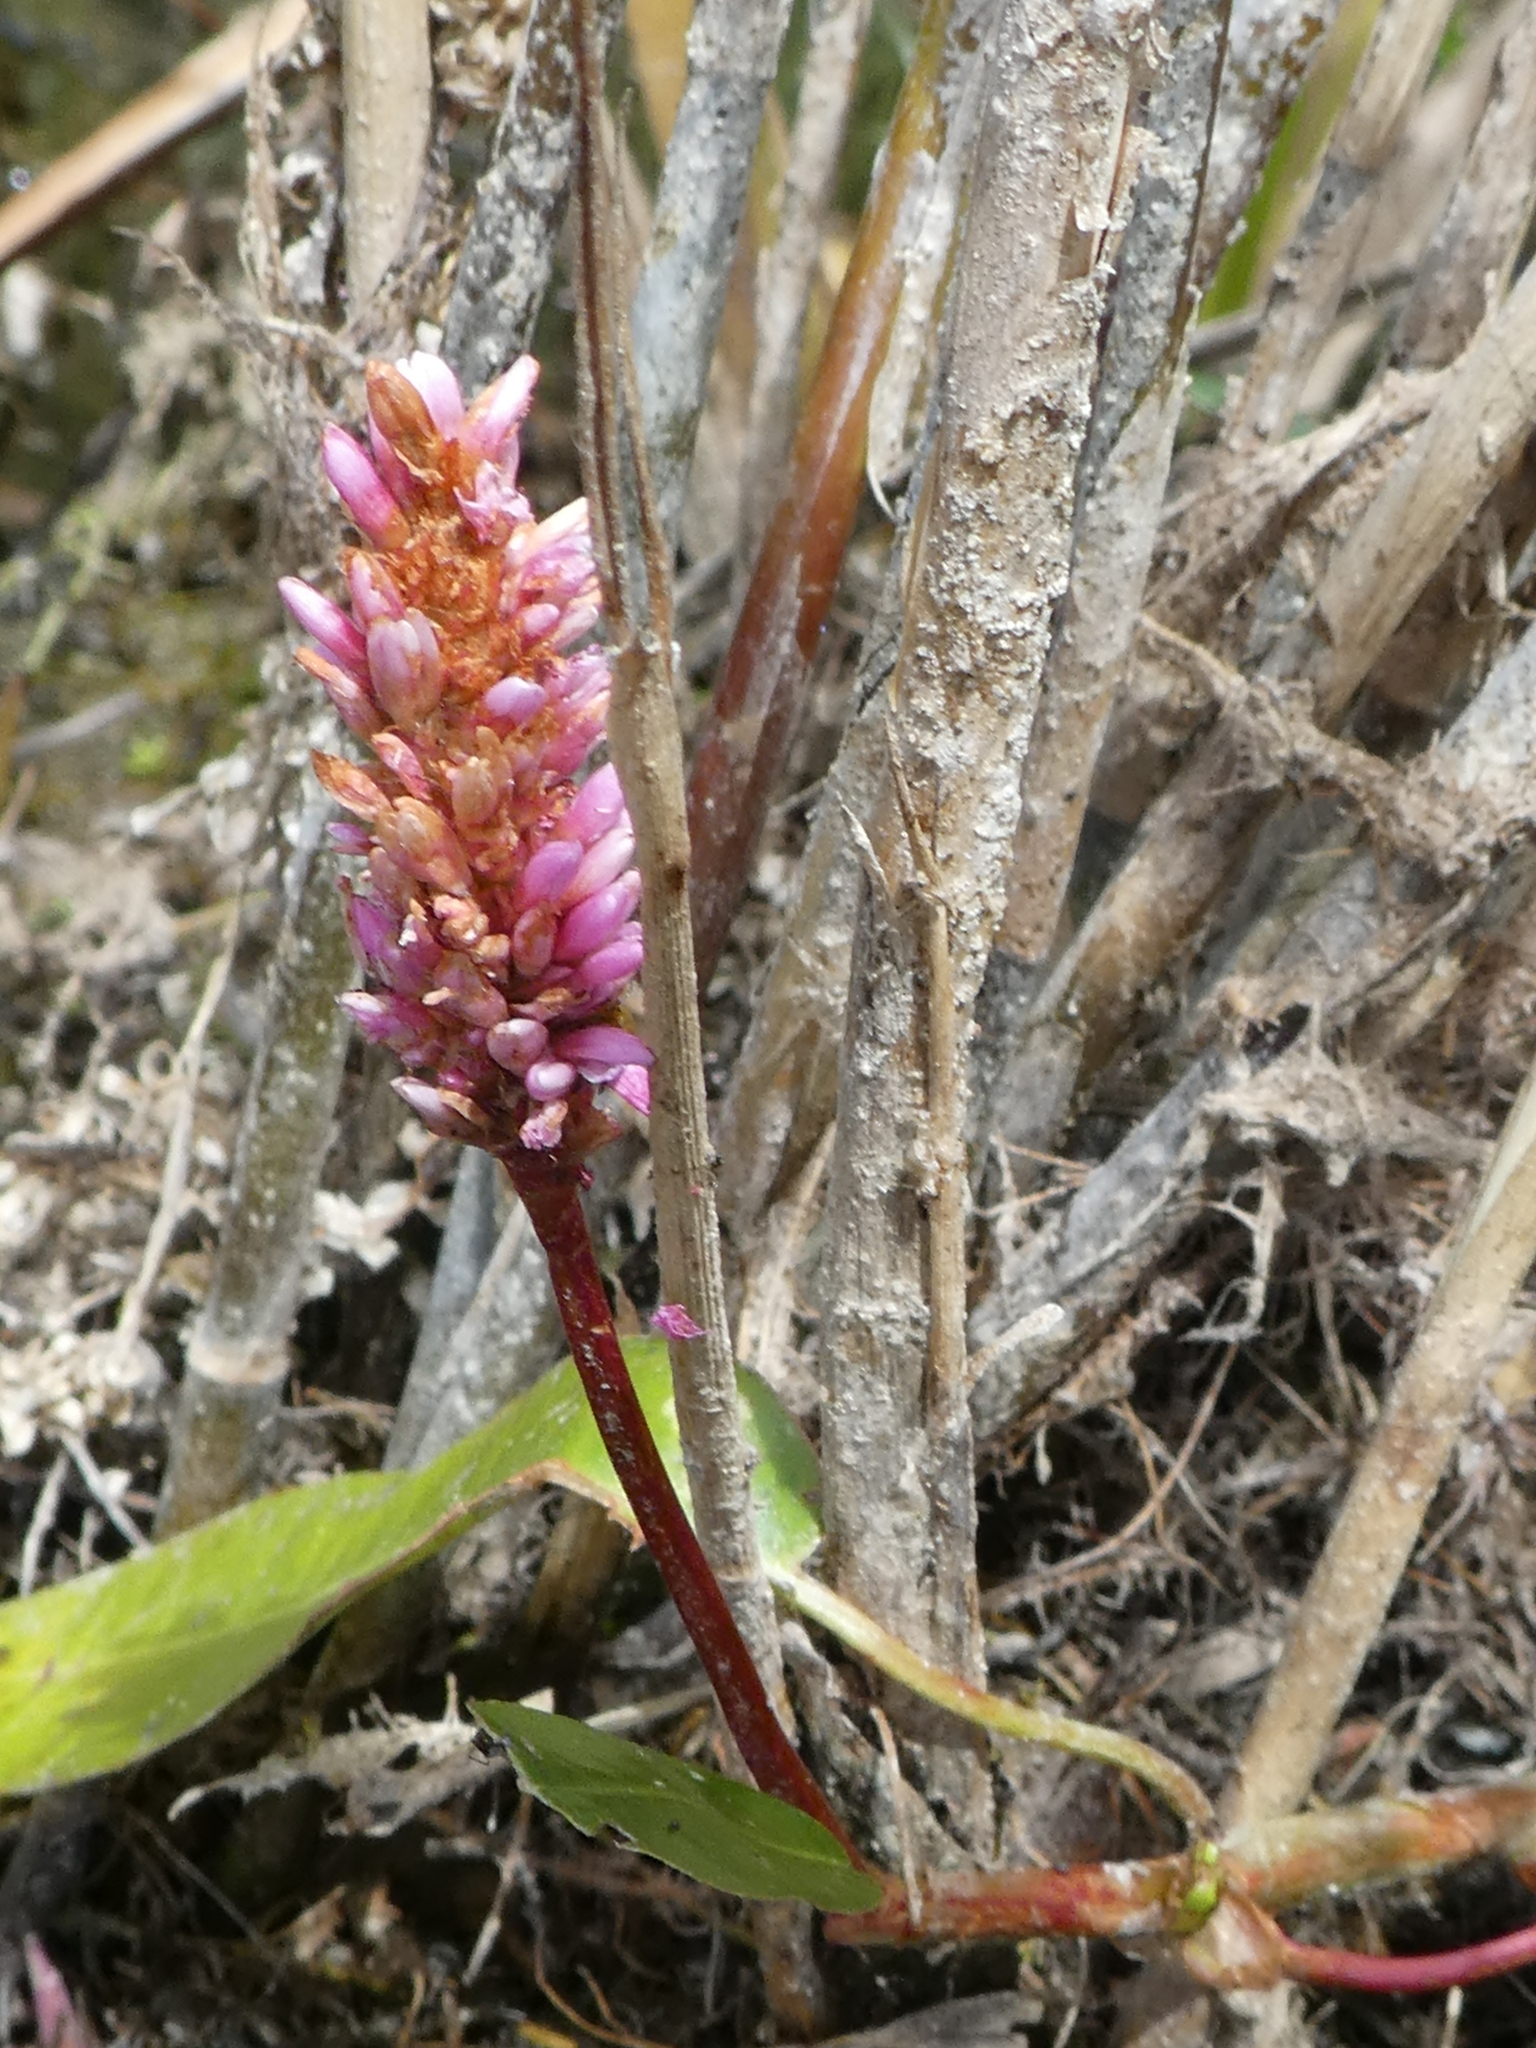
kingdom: Plantae
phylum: Tracheophyta
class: Magnoliopsida
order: Caryophyllales
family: Polygonaceae
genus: Persicaria
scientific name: Persicaria amphibia
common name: Amphibious bistort
